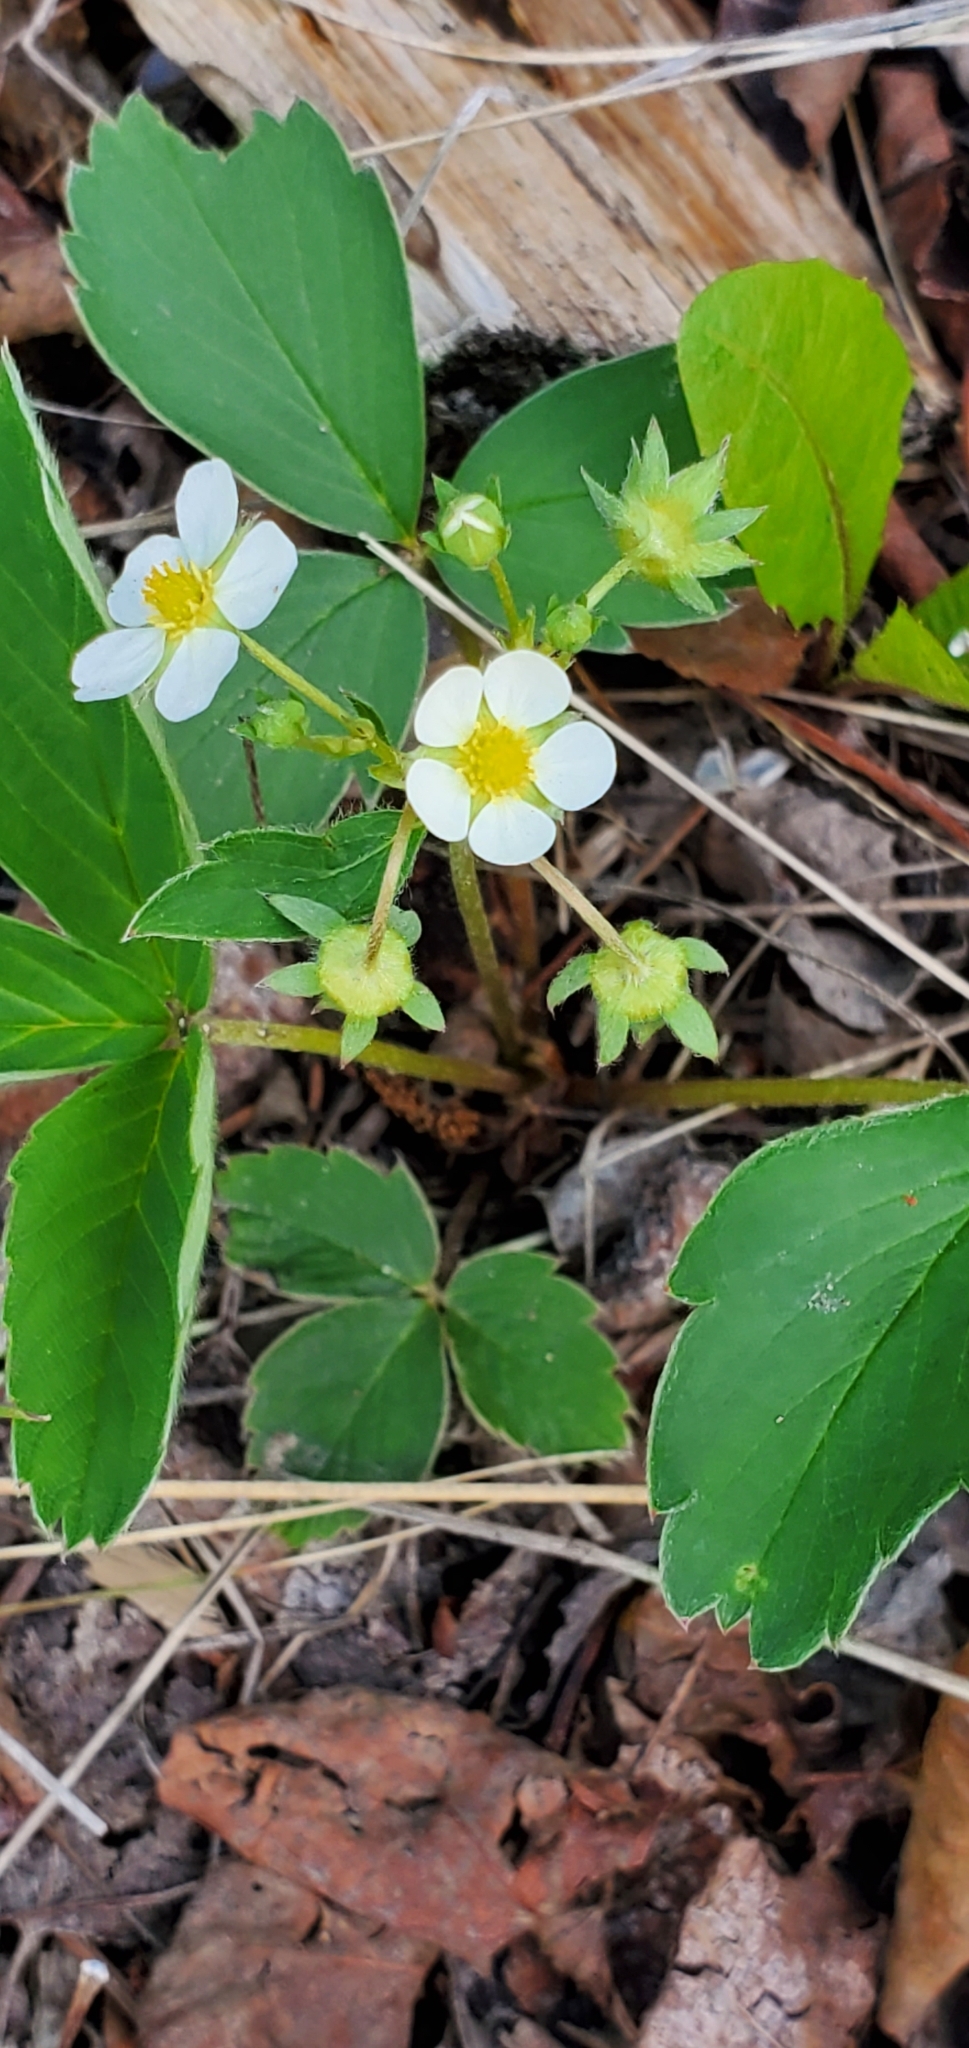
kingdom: Plantae
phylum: Tracheophyta
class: Magnoliopsida
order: Rosales
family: Rosaceae
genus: Fragaria
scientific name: Fragaria virginiana
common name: Thickleaved wild strawberry
